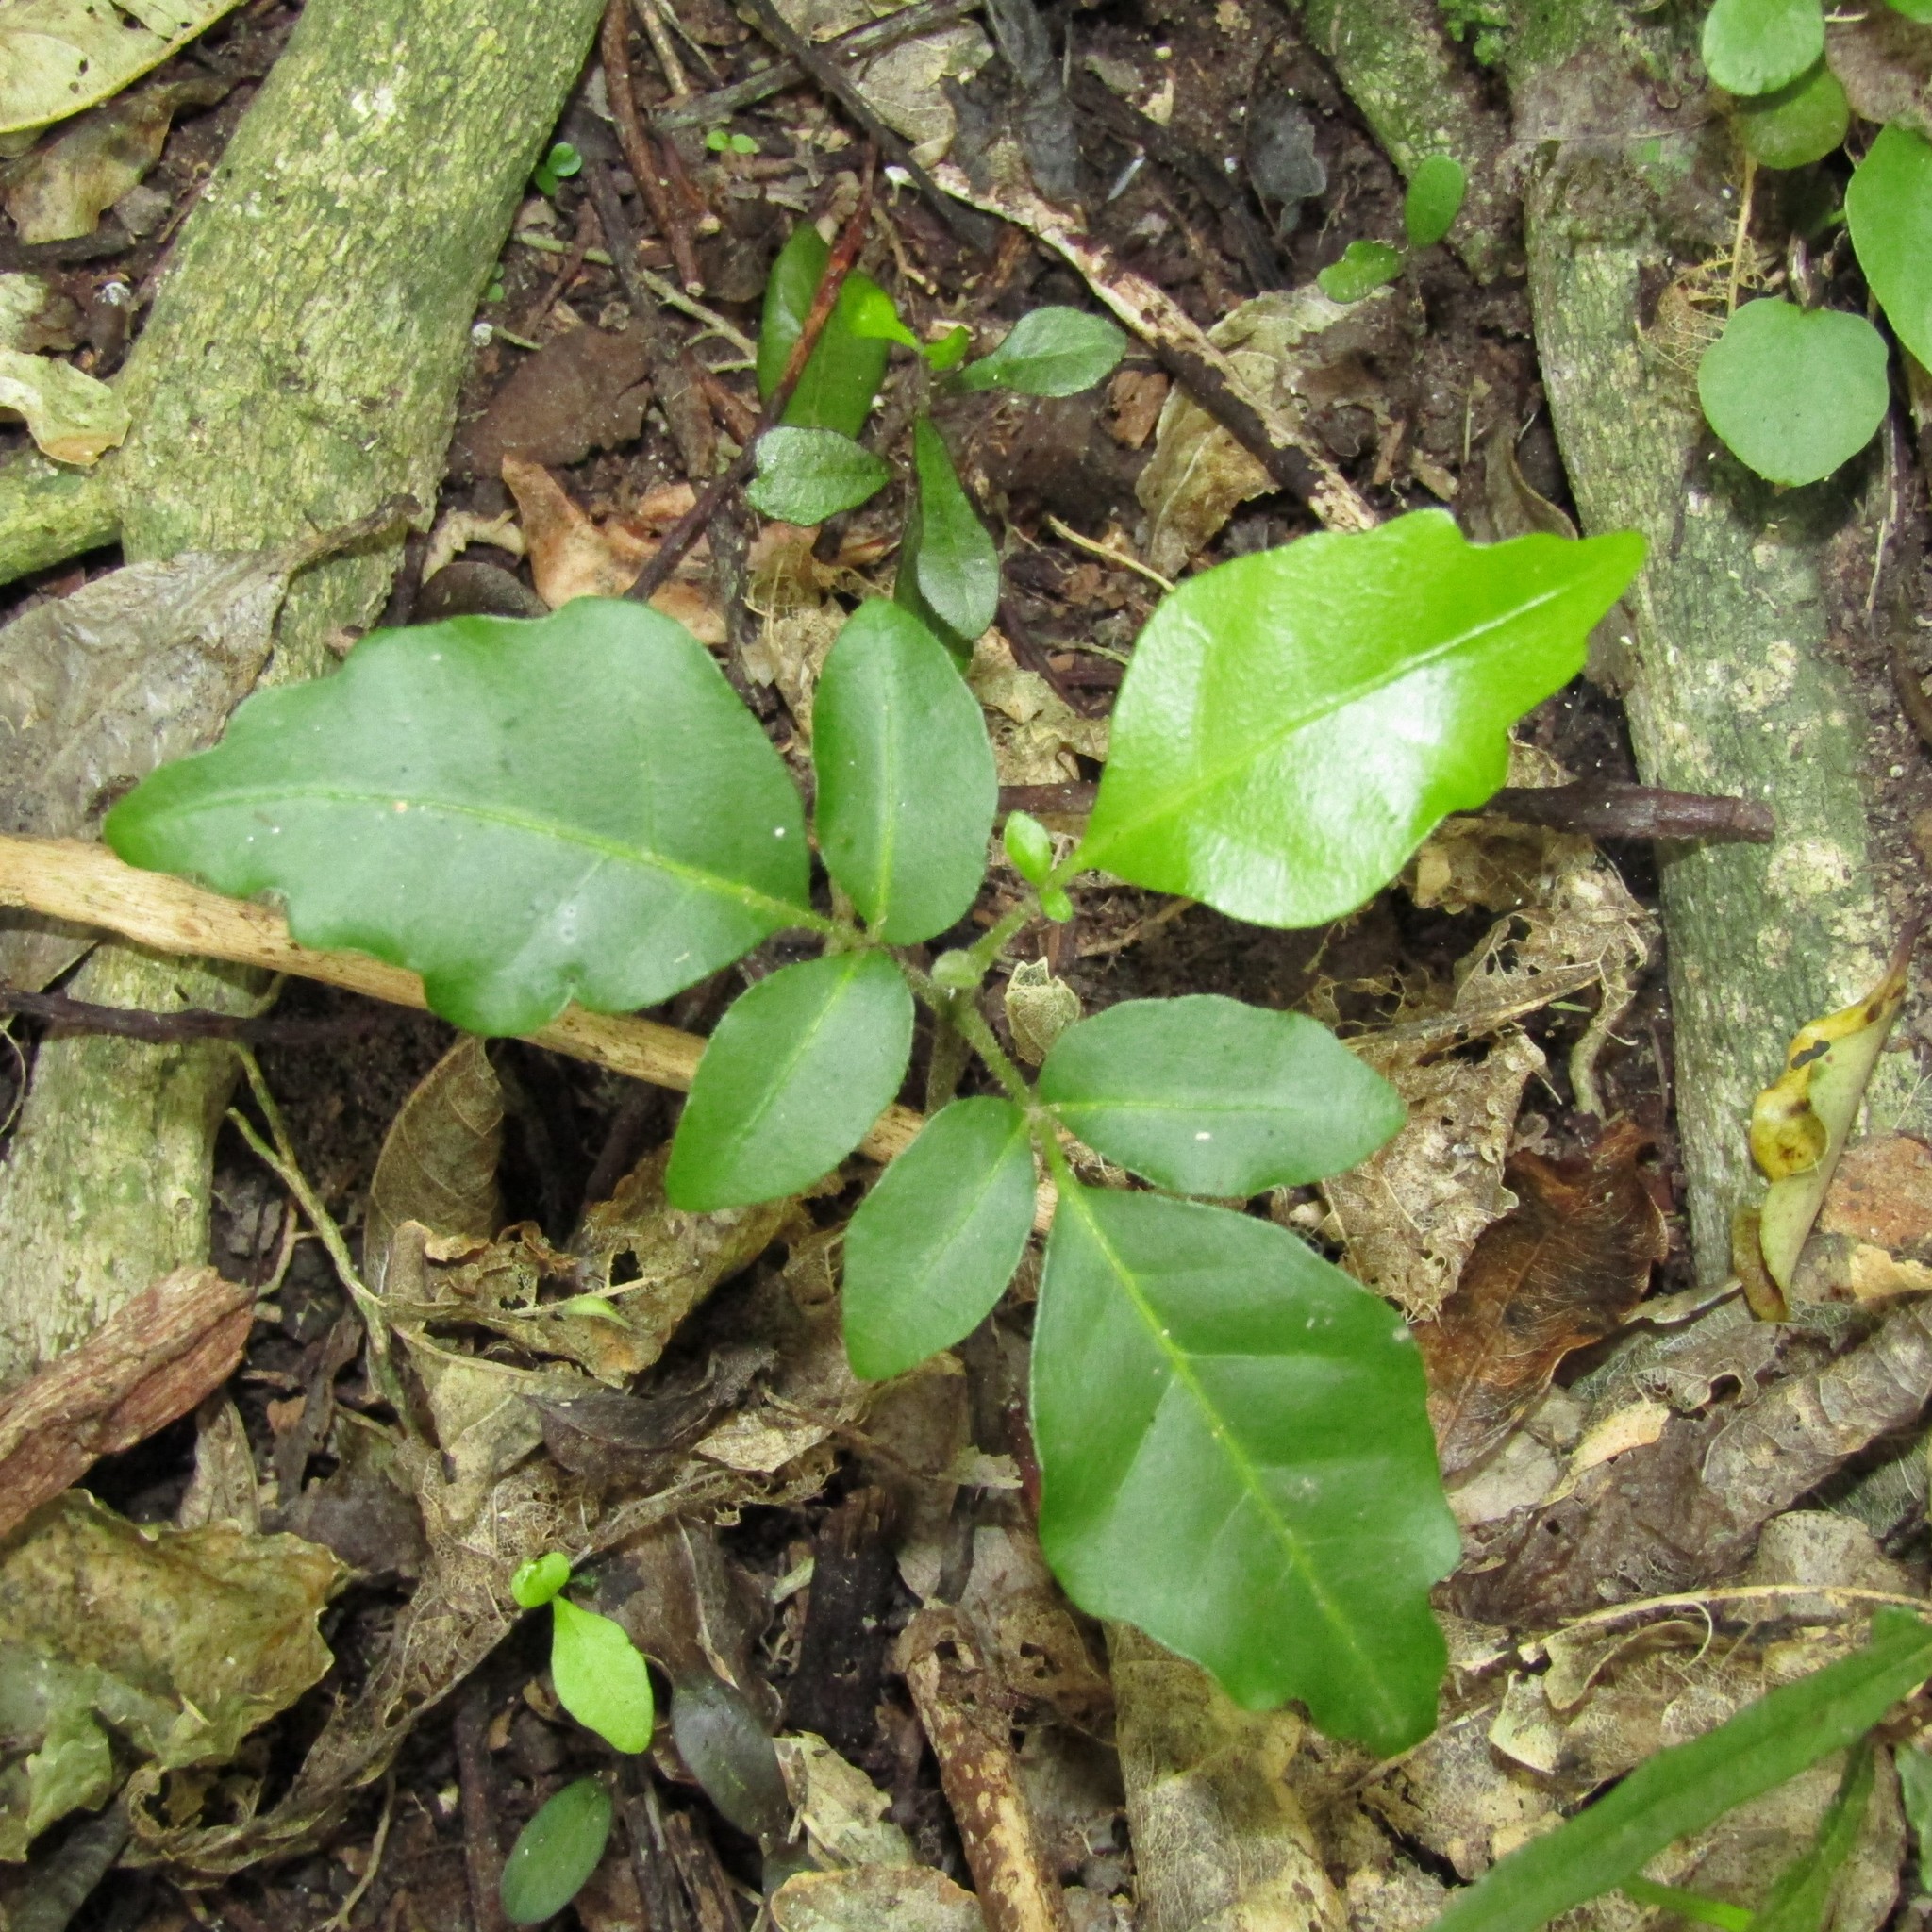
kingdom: Plantae
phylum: Tracheophyta
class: Magnoliopsida
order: Sapindales
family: Meliaceae
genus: Didymocheton
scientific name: Didymocheton spectabilis
